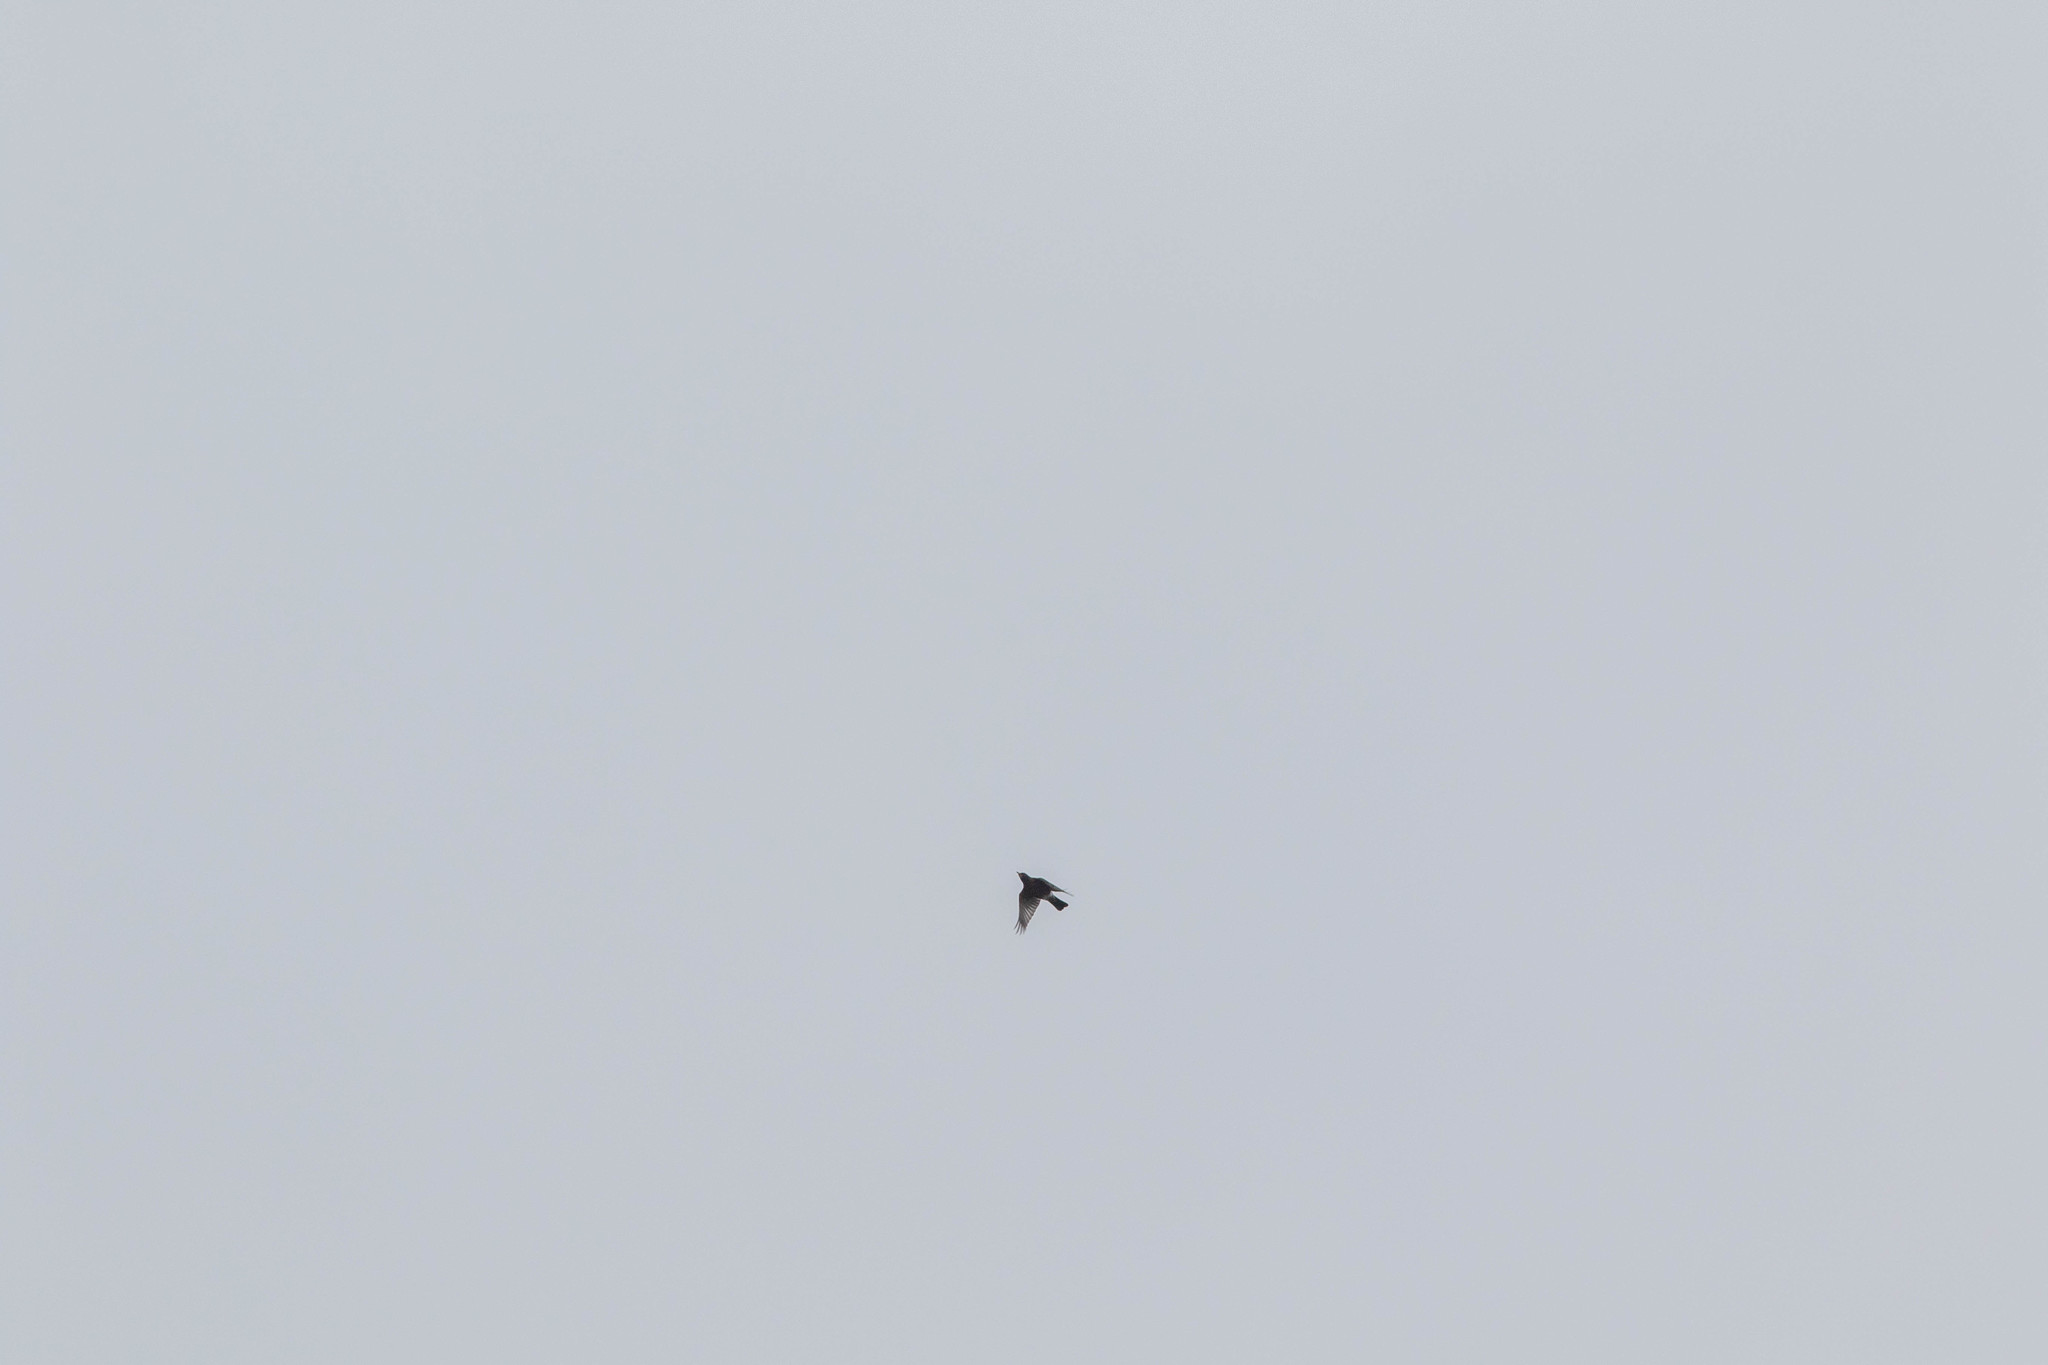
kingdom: Animalia
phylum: Chordata
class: Aves
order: Passeriformes
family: Turdidae
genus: Turdus
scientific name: Turdus migratorius
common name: American robin
